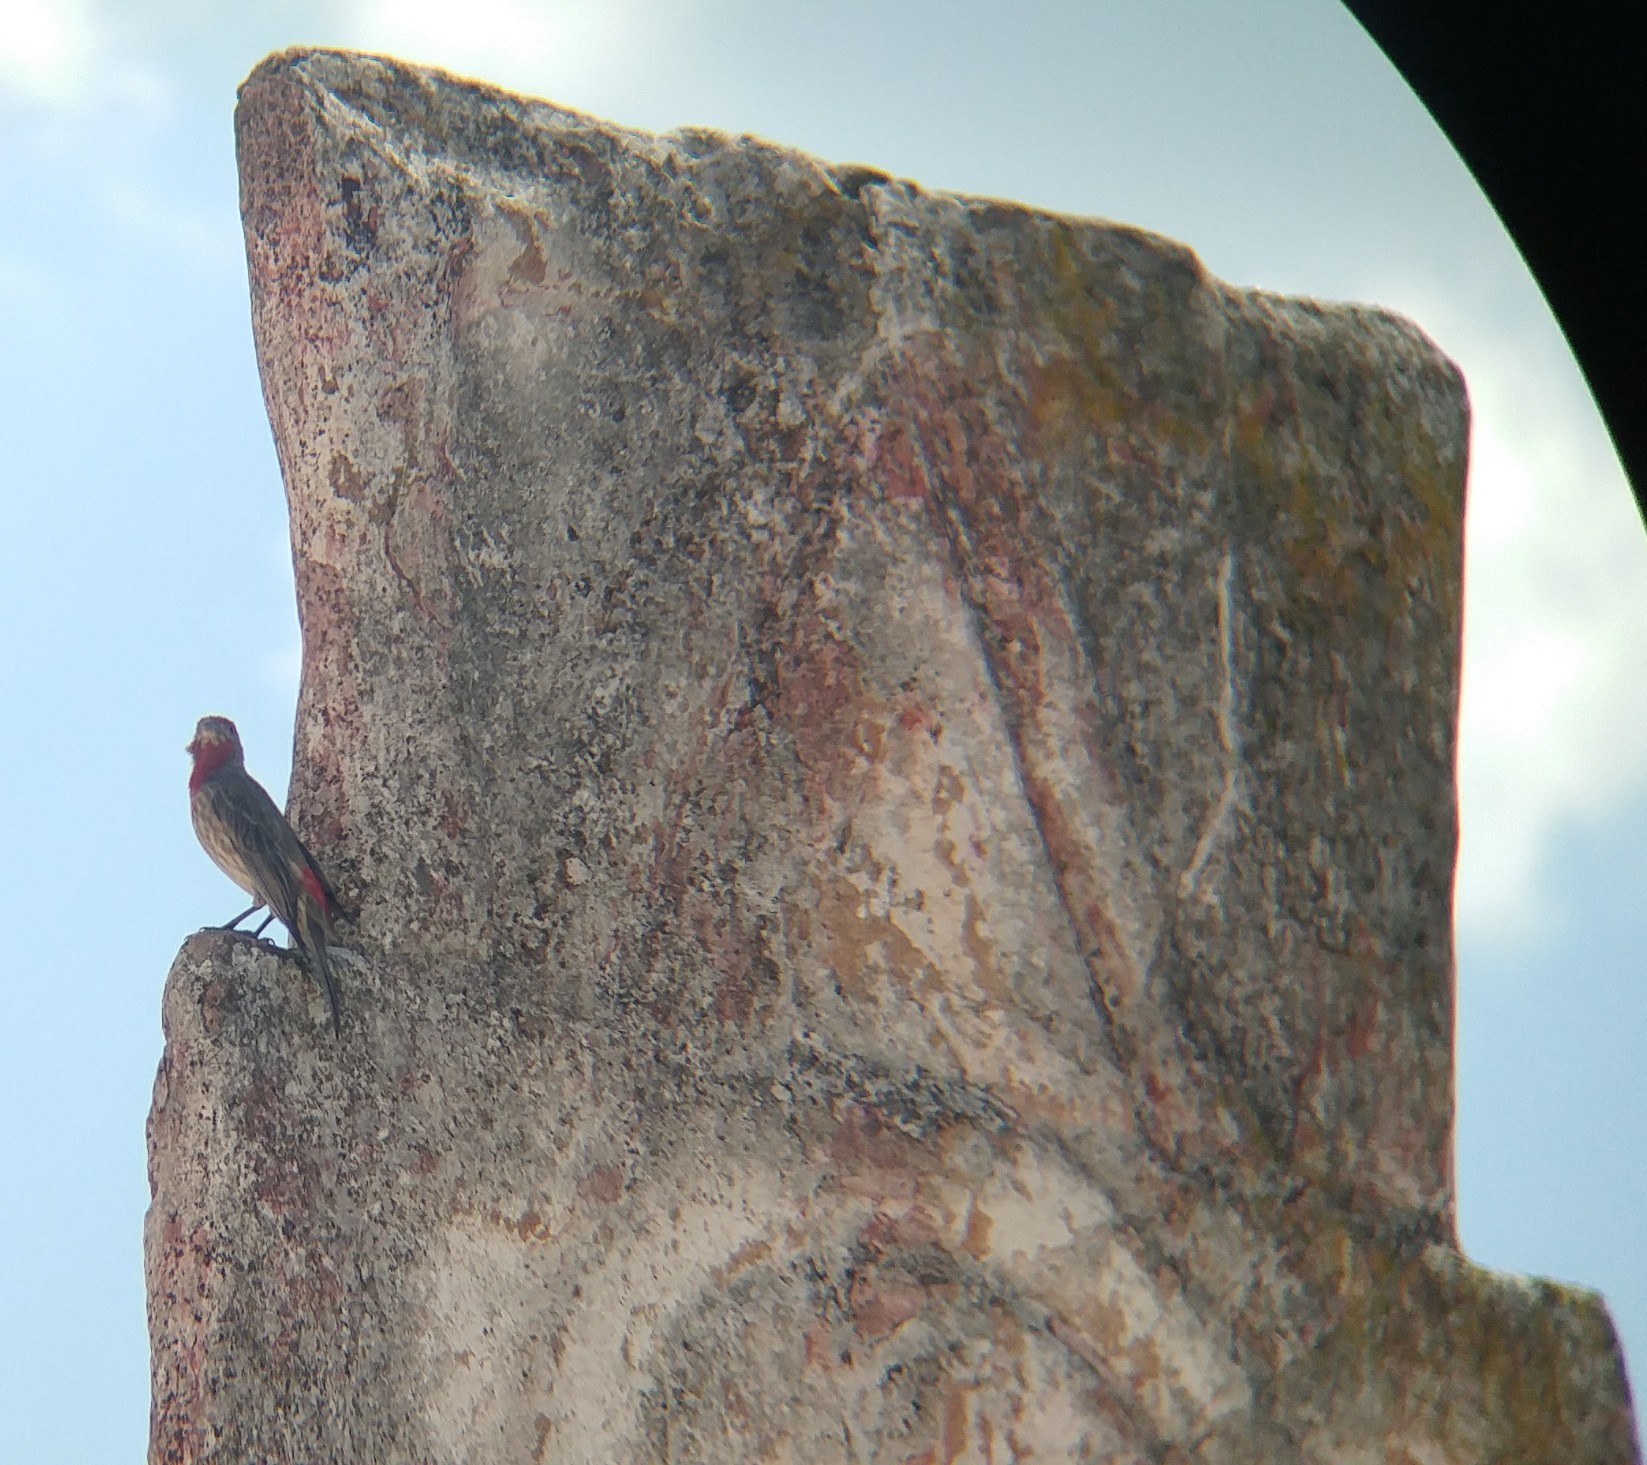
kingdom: Animalia
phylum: Chordata
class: Aves
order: Passeriformes
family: Fringillidae
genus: Haemorhous
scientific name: Haemorhous mexicanus
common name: House finch
